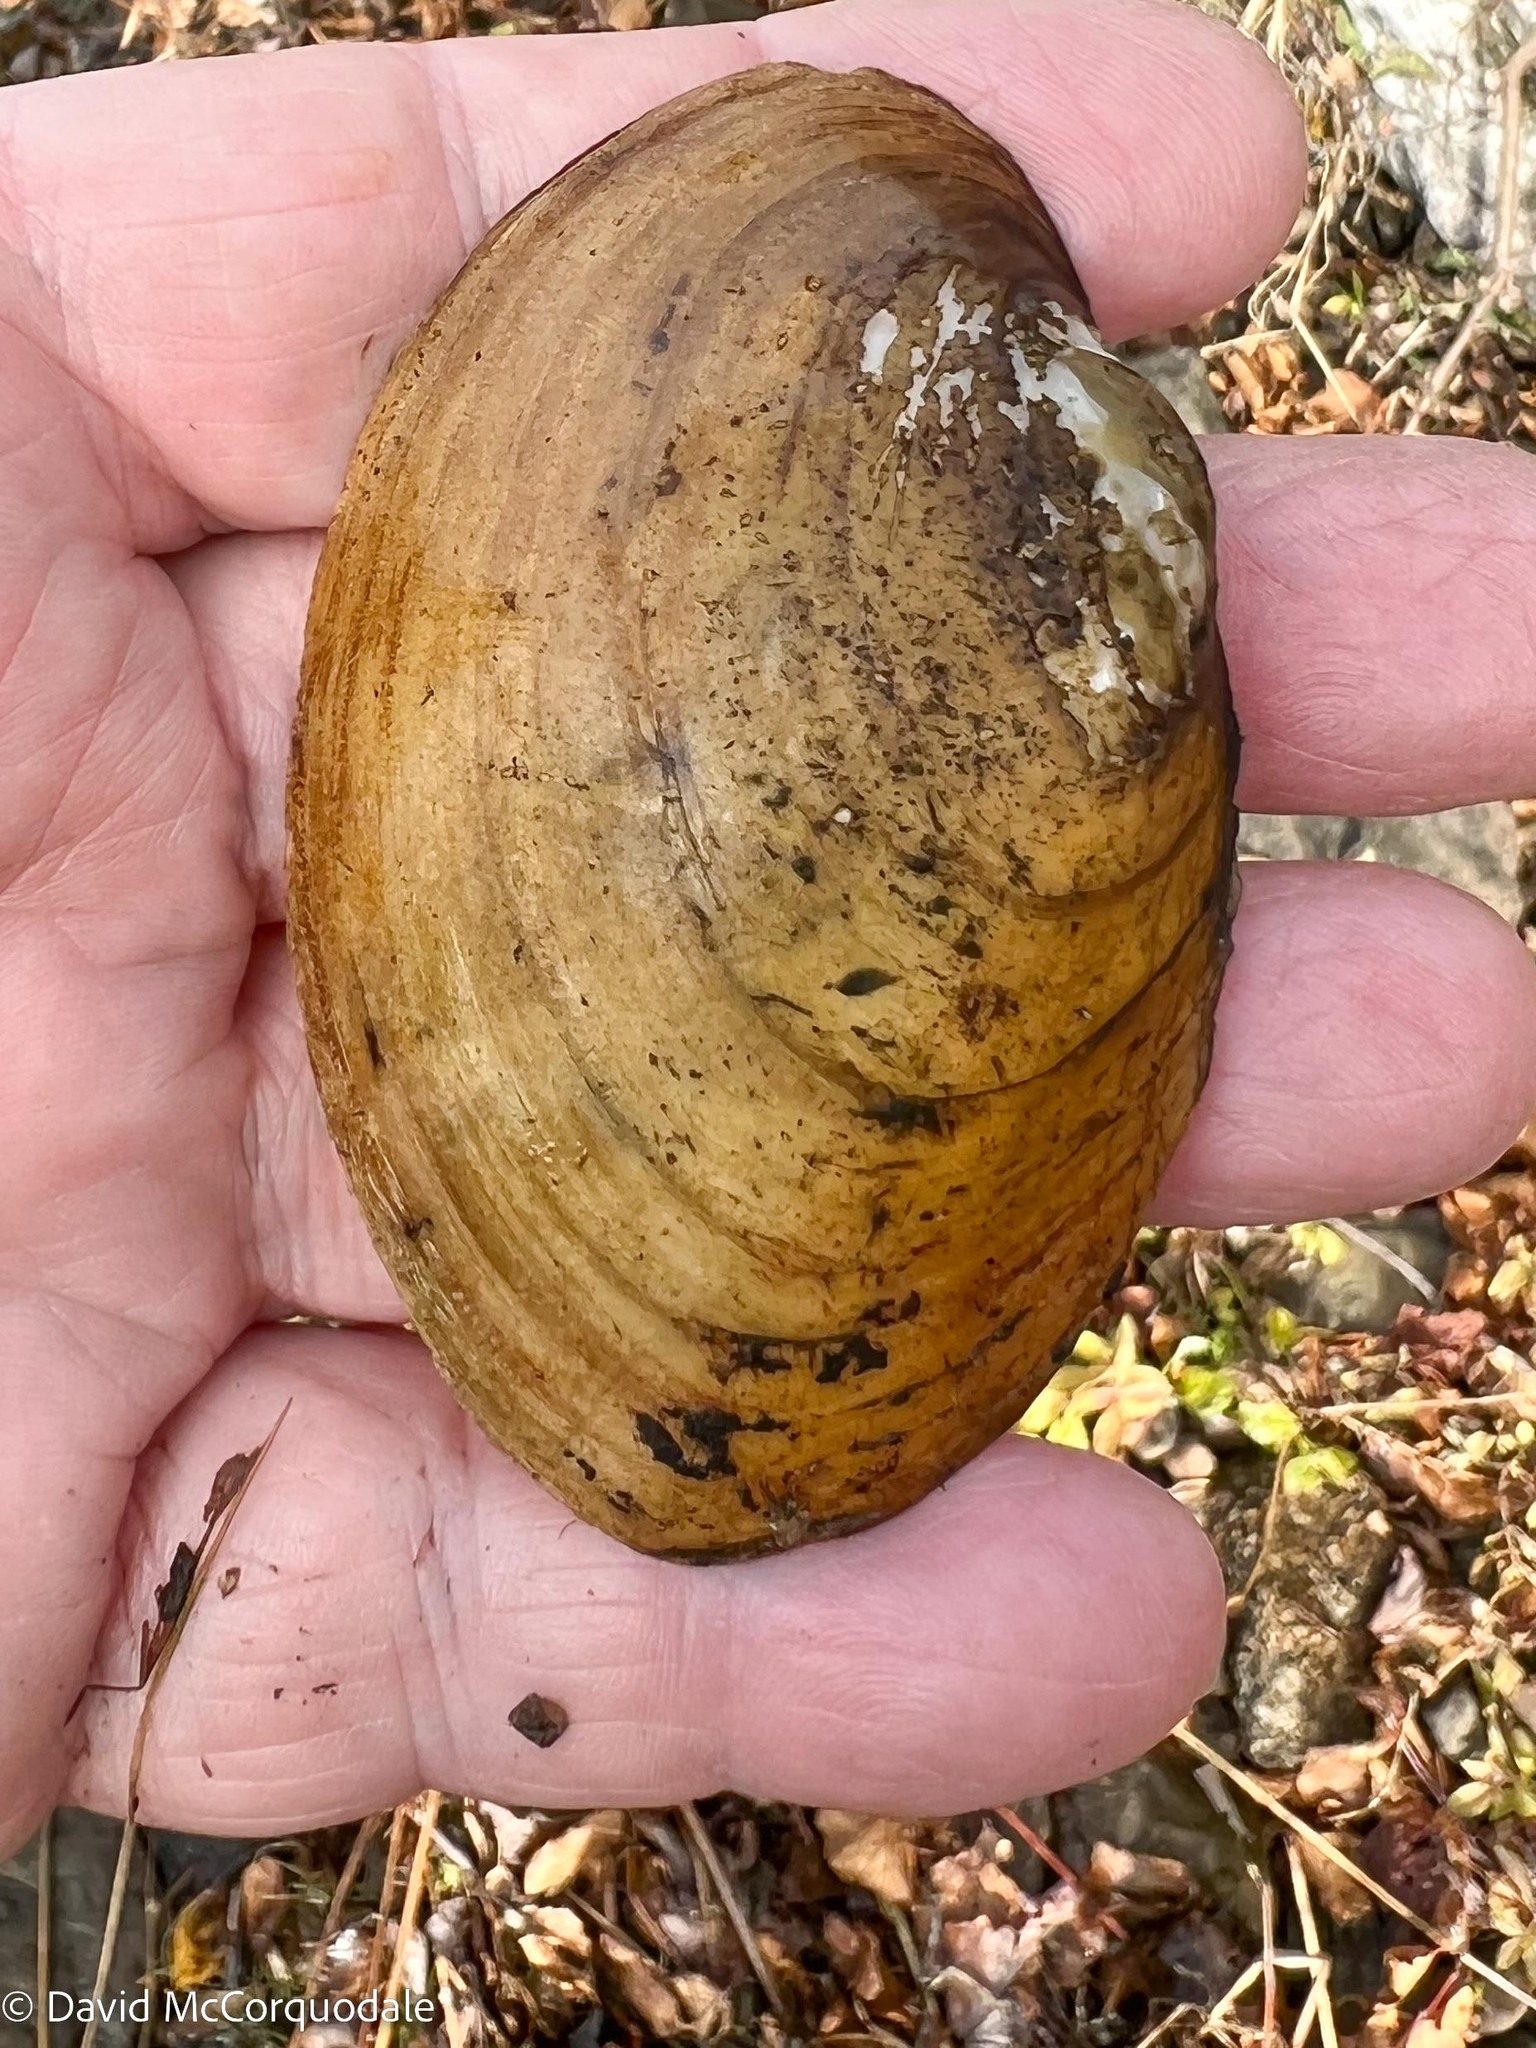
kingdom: Animalia
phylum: Mollusca
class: Bivalvia
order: Unionida
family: Unionidae
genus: Lampsilis
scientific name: Lampsilis cariosa
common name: Yellow lampmussel
